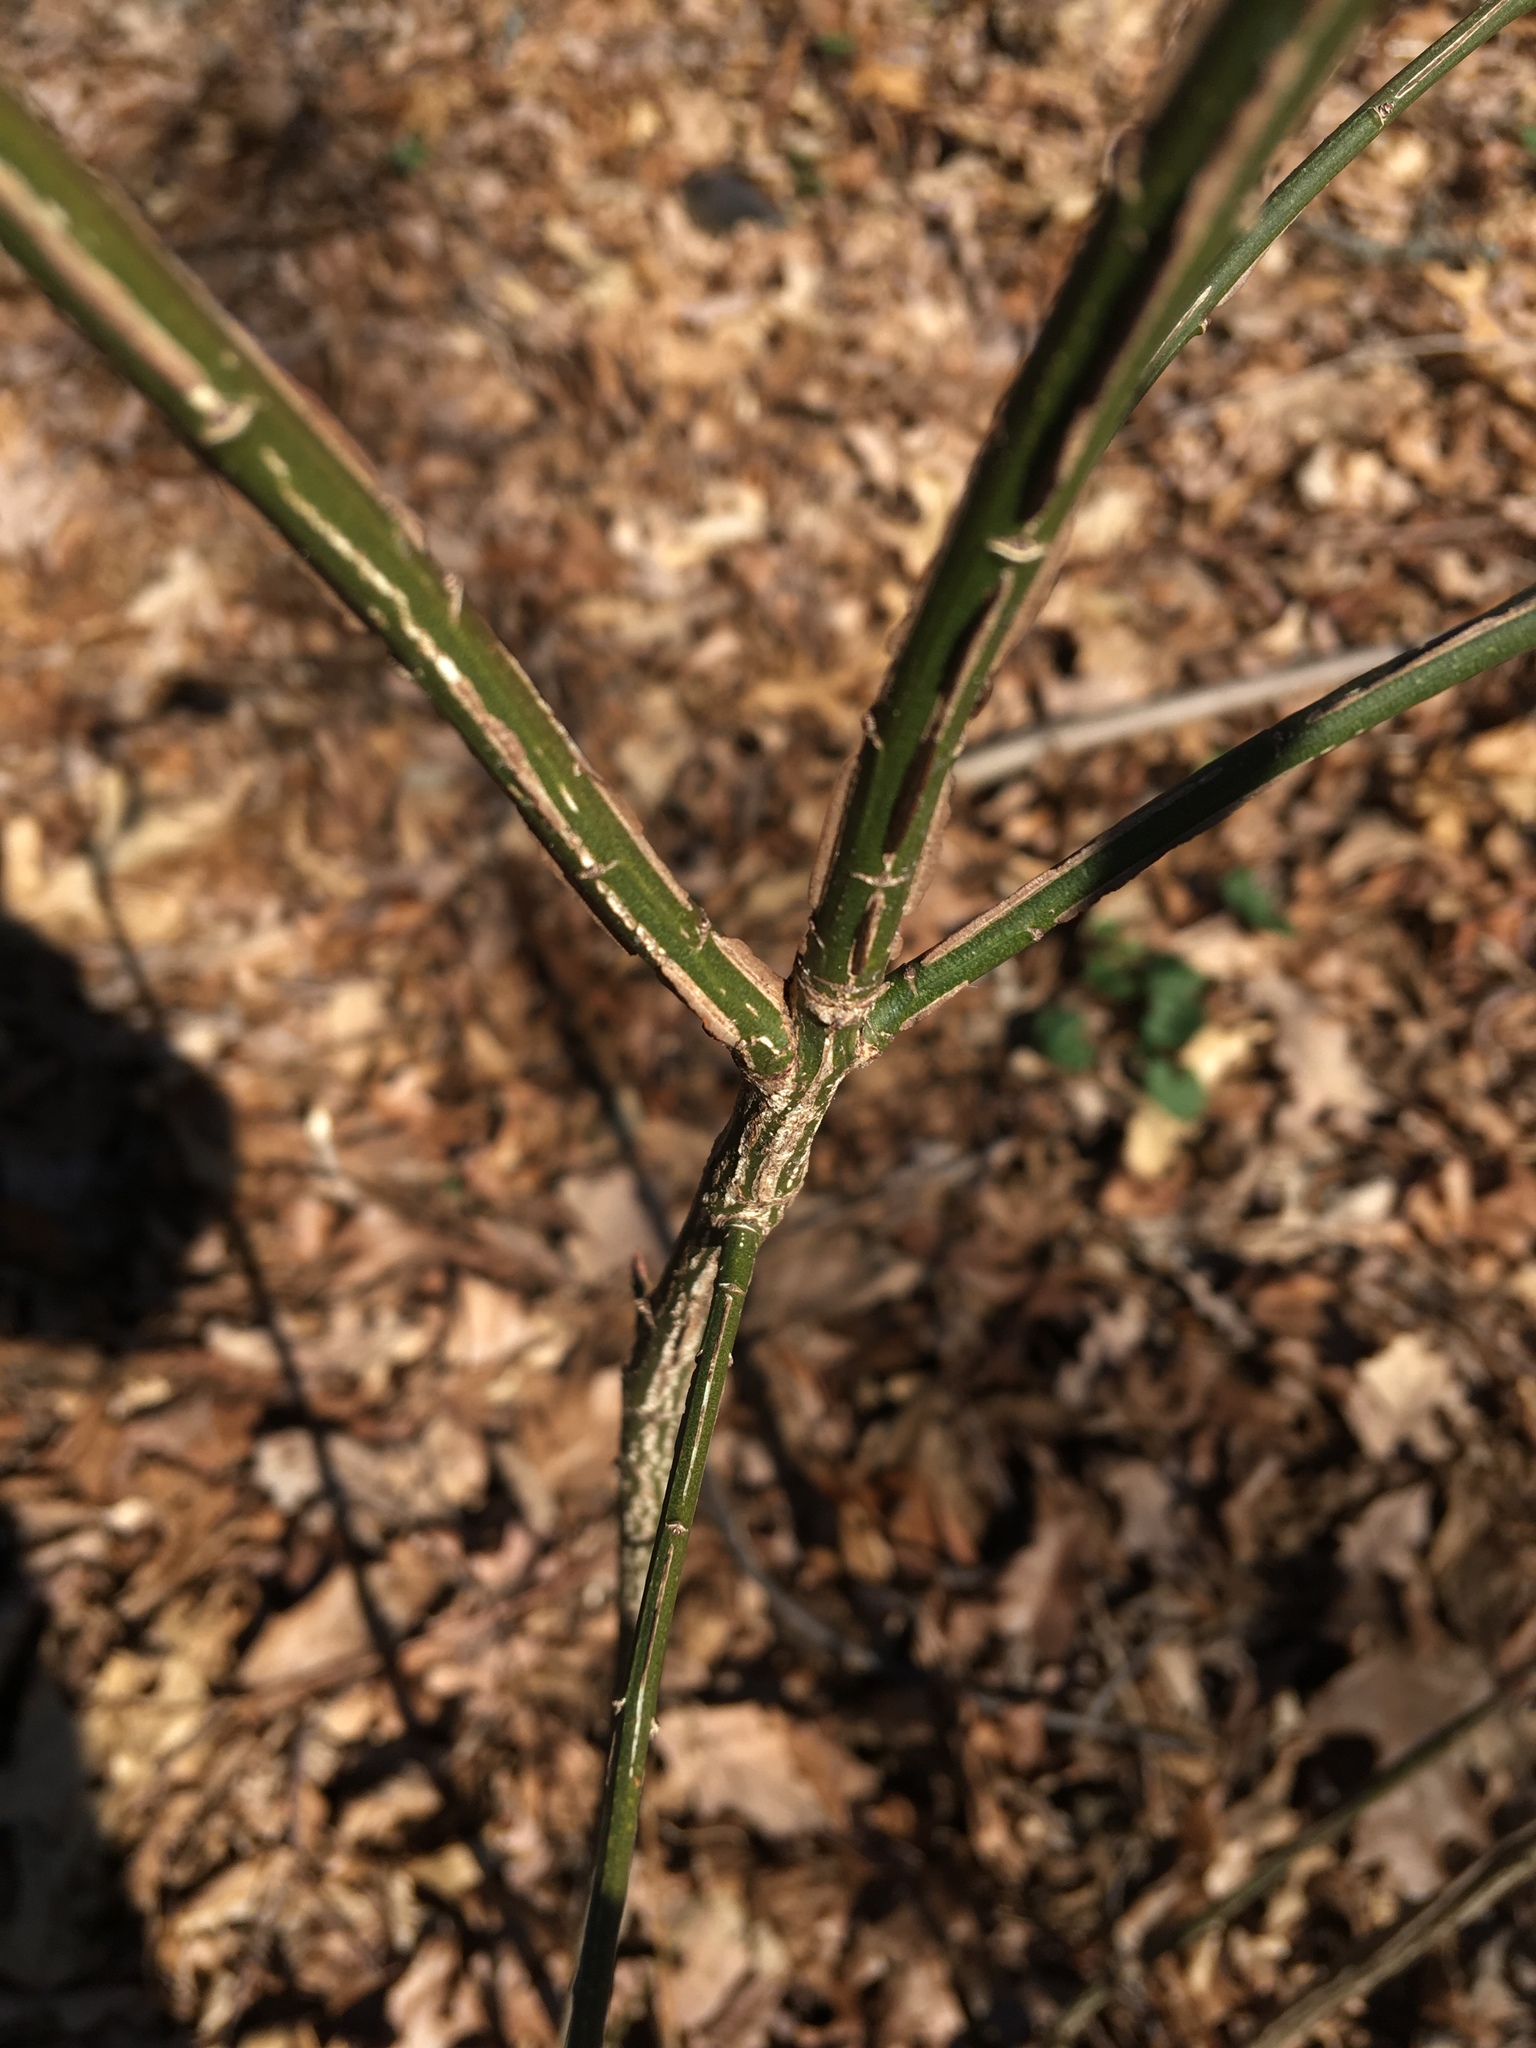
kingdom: Plantae
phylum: Tracheophyta
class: Magnoliopsida
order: Celastrales
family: Celastraceae
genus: Euonymus
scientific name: Euonymus alatus
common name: Winged euonymus
